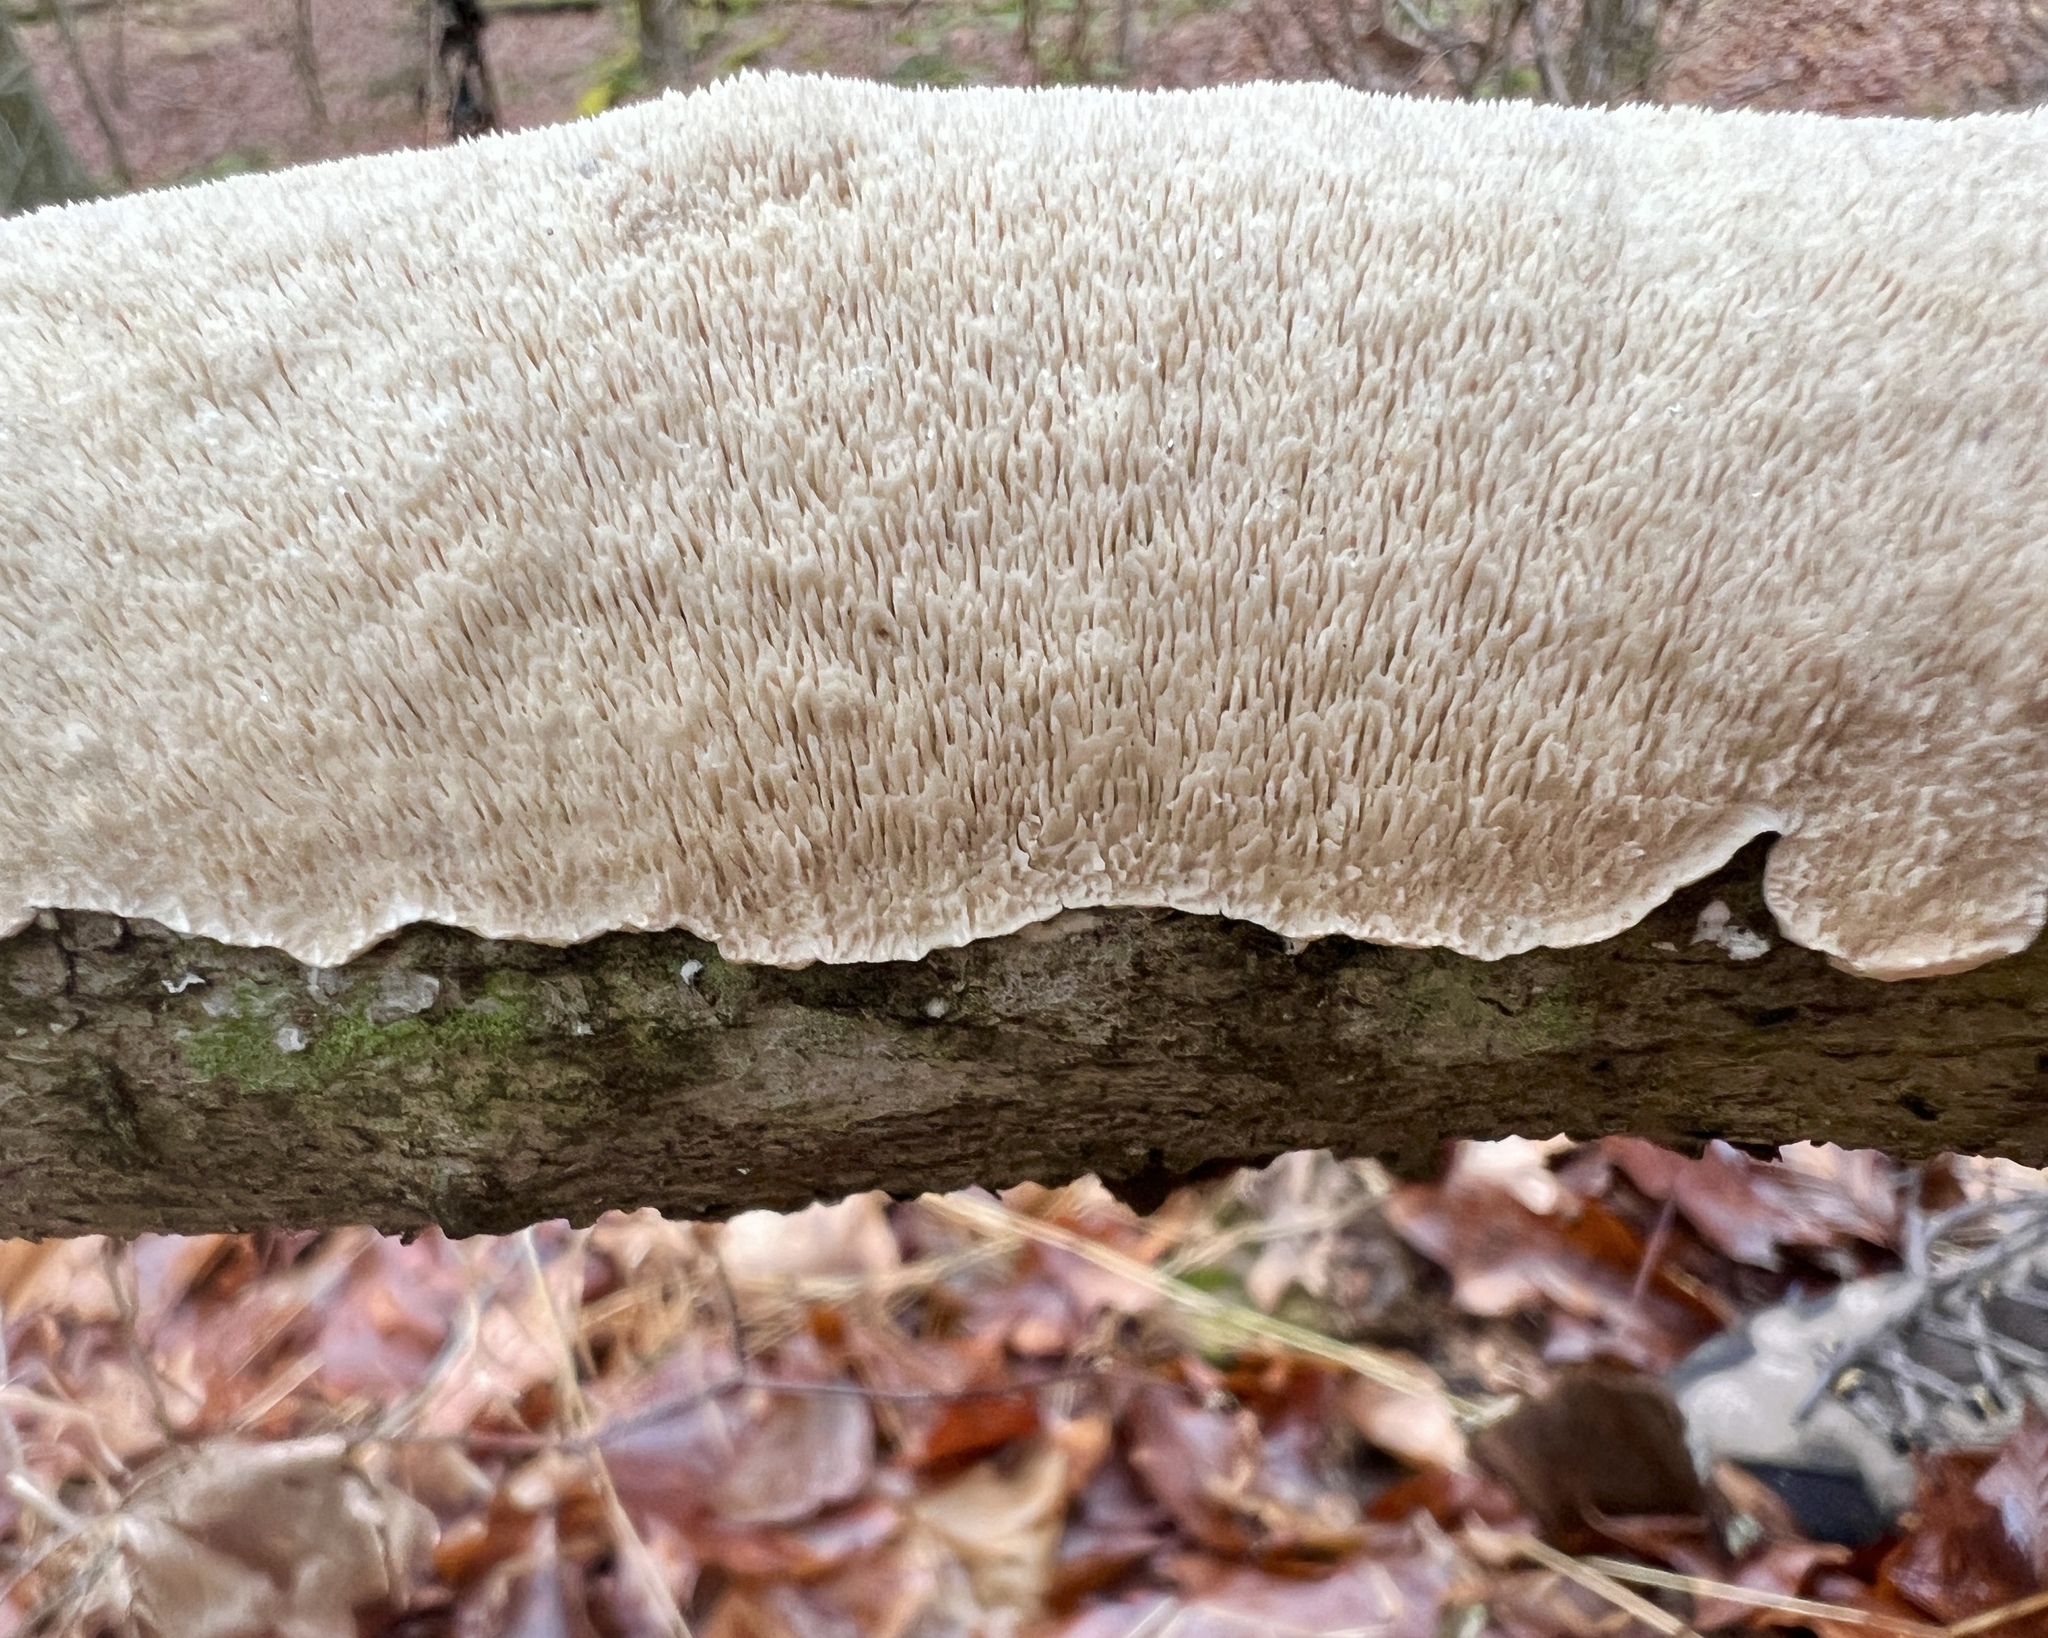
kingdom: Fungi
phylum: Basidiomycota
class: Agaricomycetes
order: Polyporales
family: Irpicaceae
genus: Irpex
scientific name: Irpex lacteus
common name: Milk-white toothed polypore
